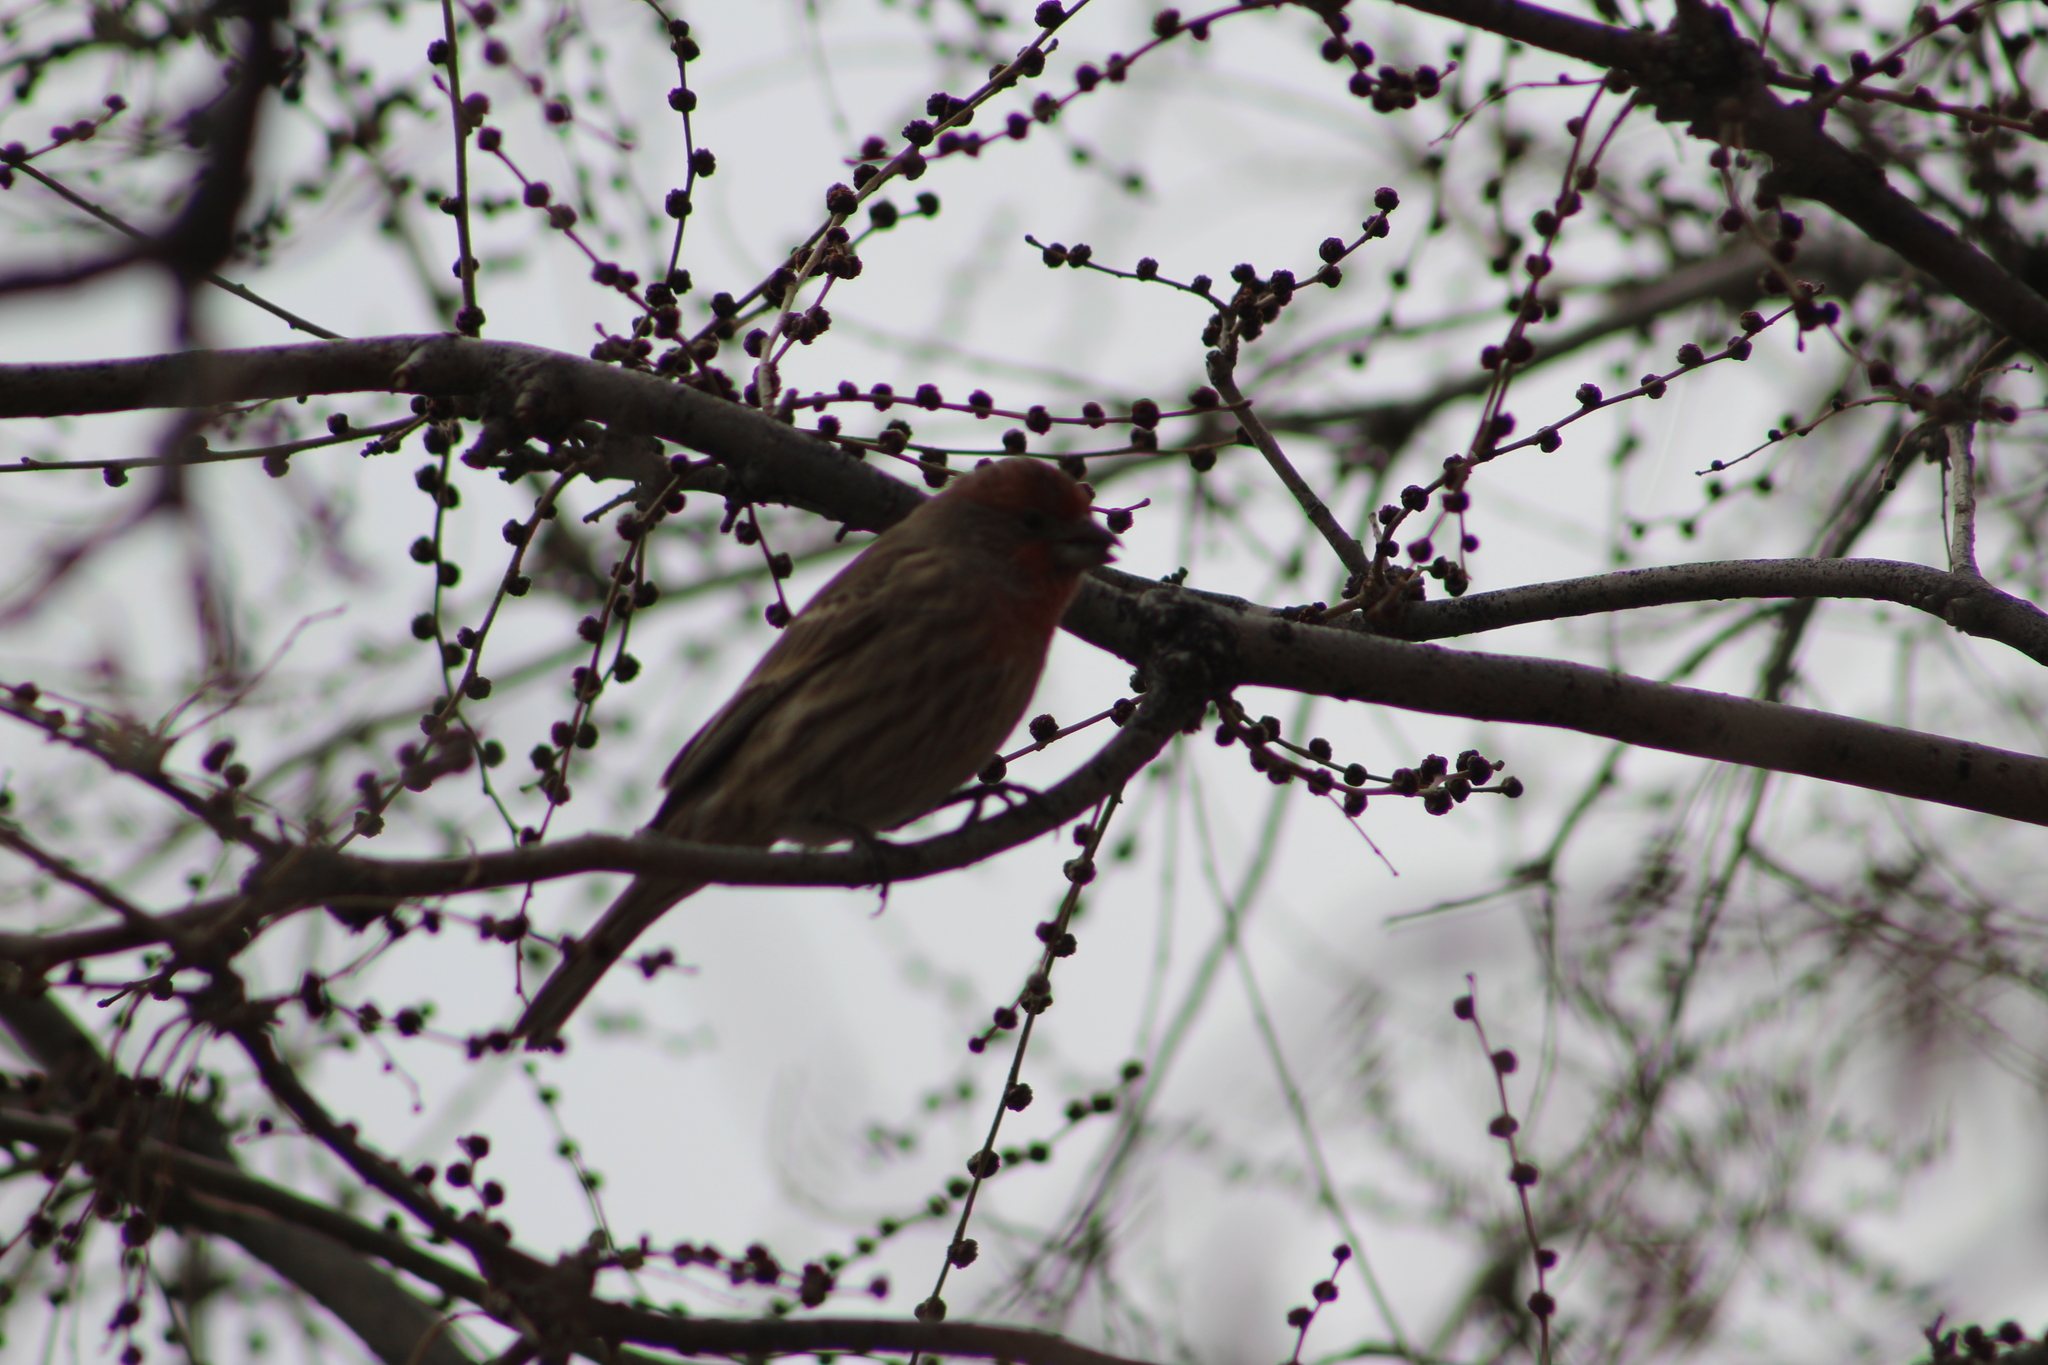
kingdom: Animalia
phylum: Chordata
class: Aves
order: Passeriformes
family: Fringillidae
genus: Haemorhous
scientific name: Haemorhous mexicanus
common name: House finch
